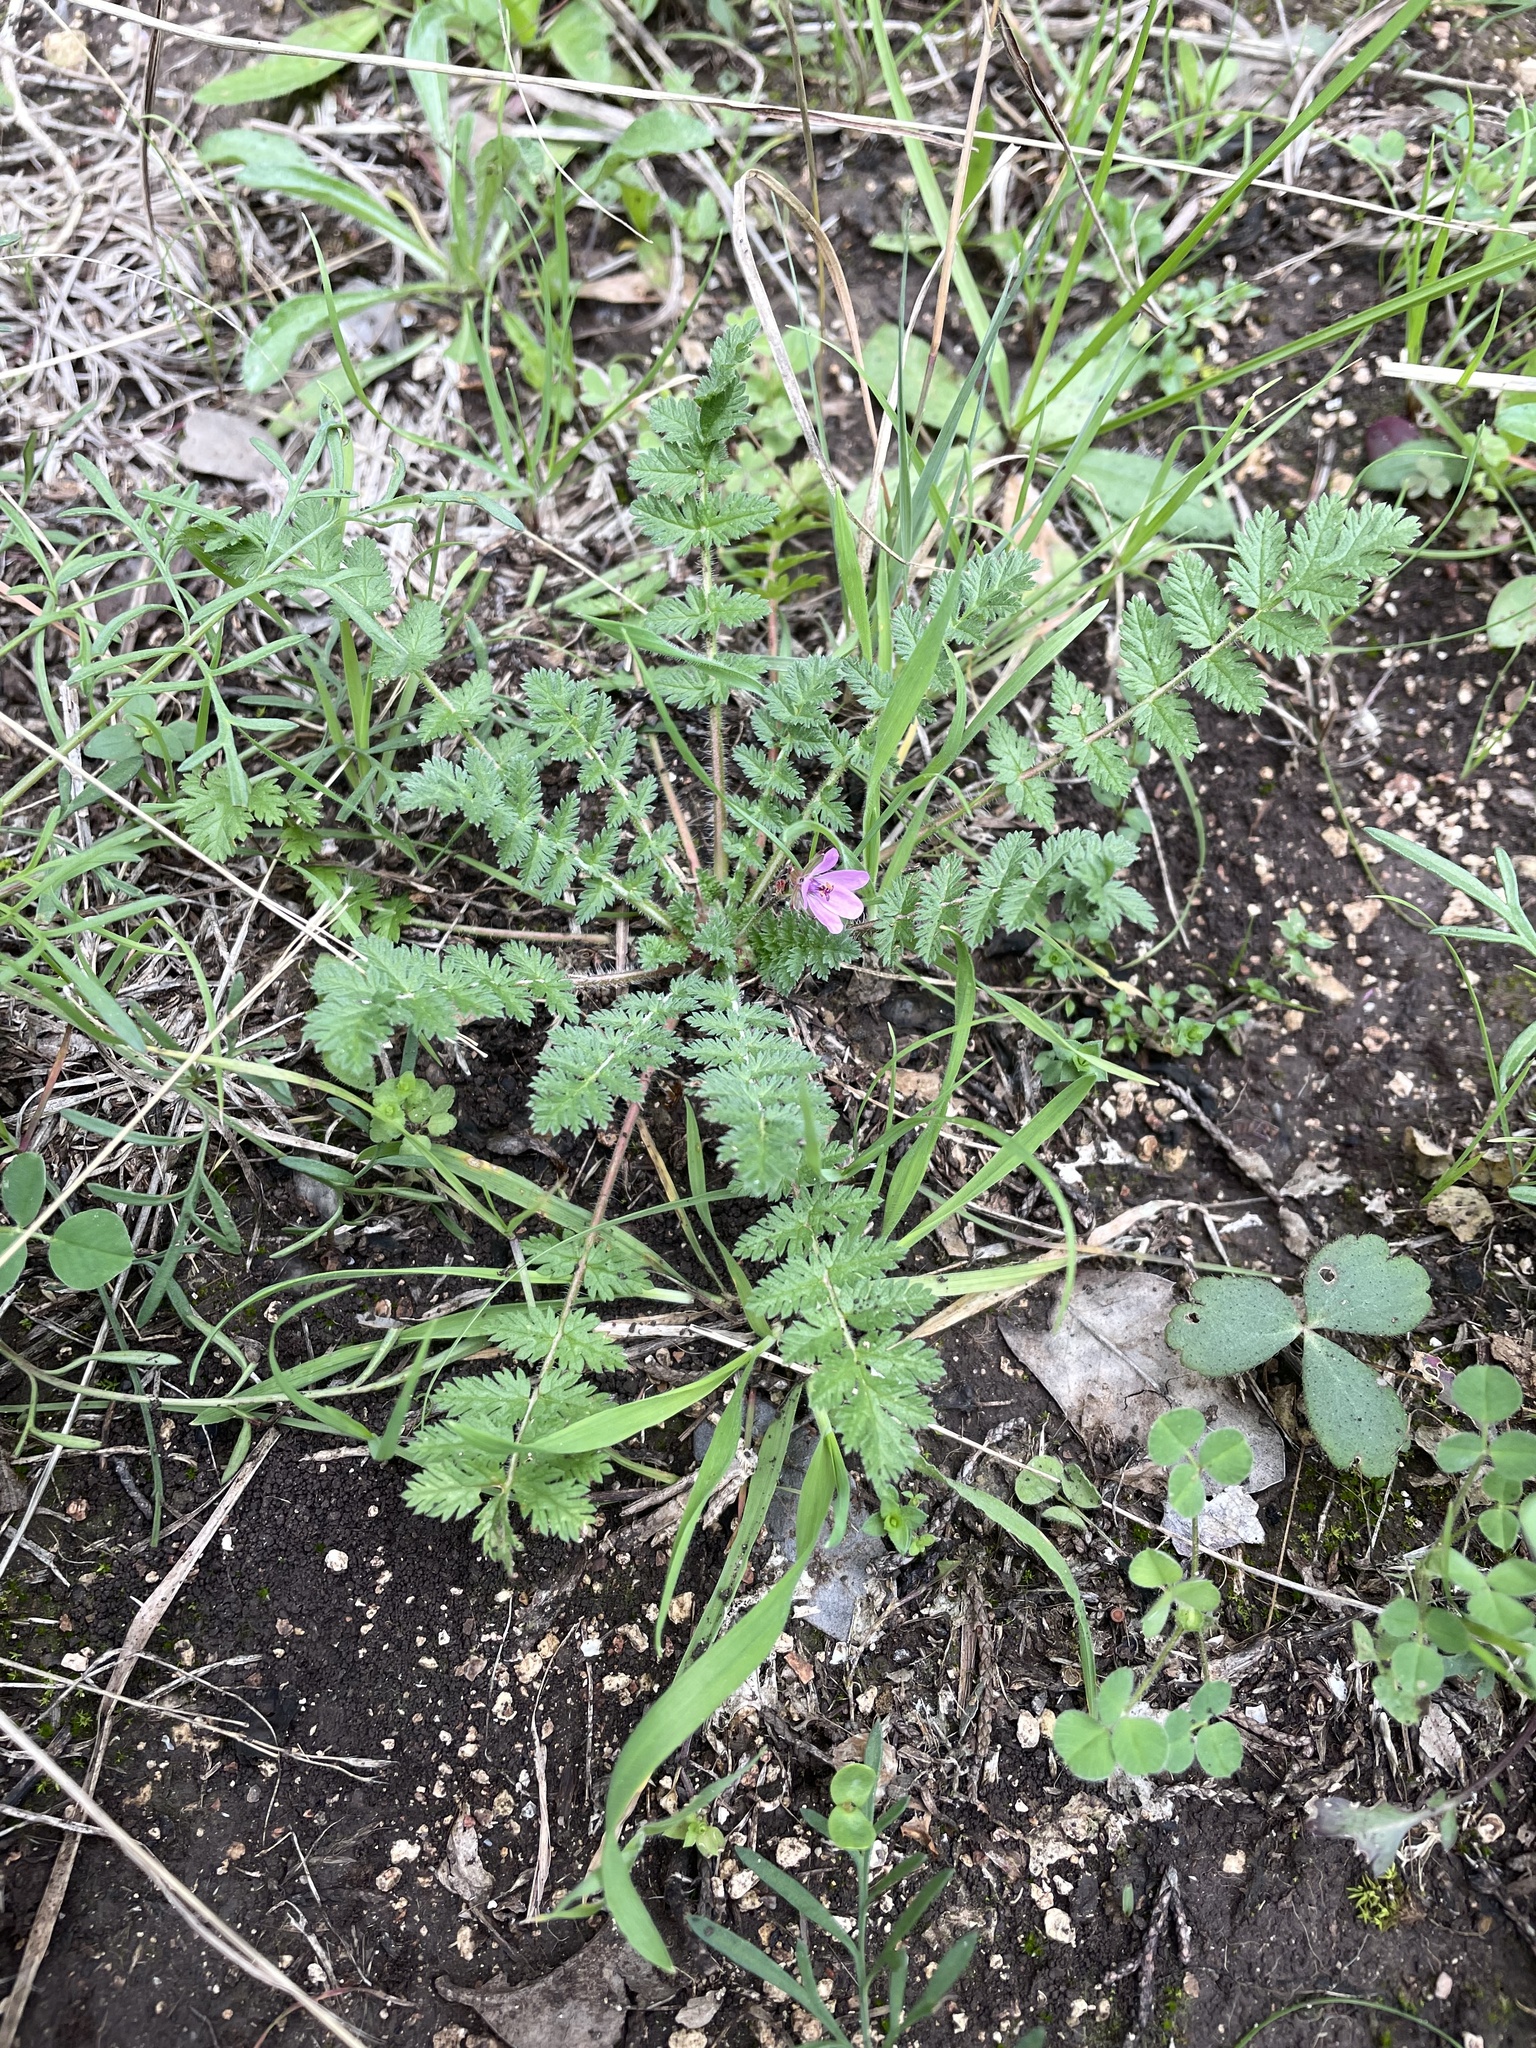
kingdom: Plantae
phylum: Tracheophyta
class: Magnoliopsida
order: Geraniales
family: Geraniaceae
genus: Erodium
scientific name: Erodium cicutarium
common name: Common stork's-bill
